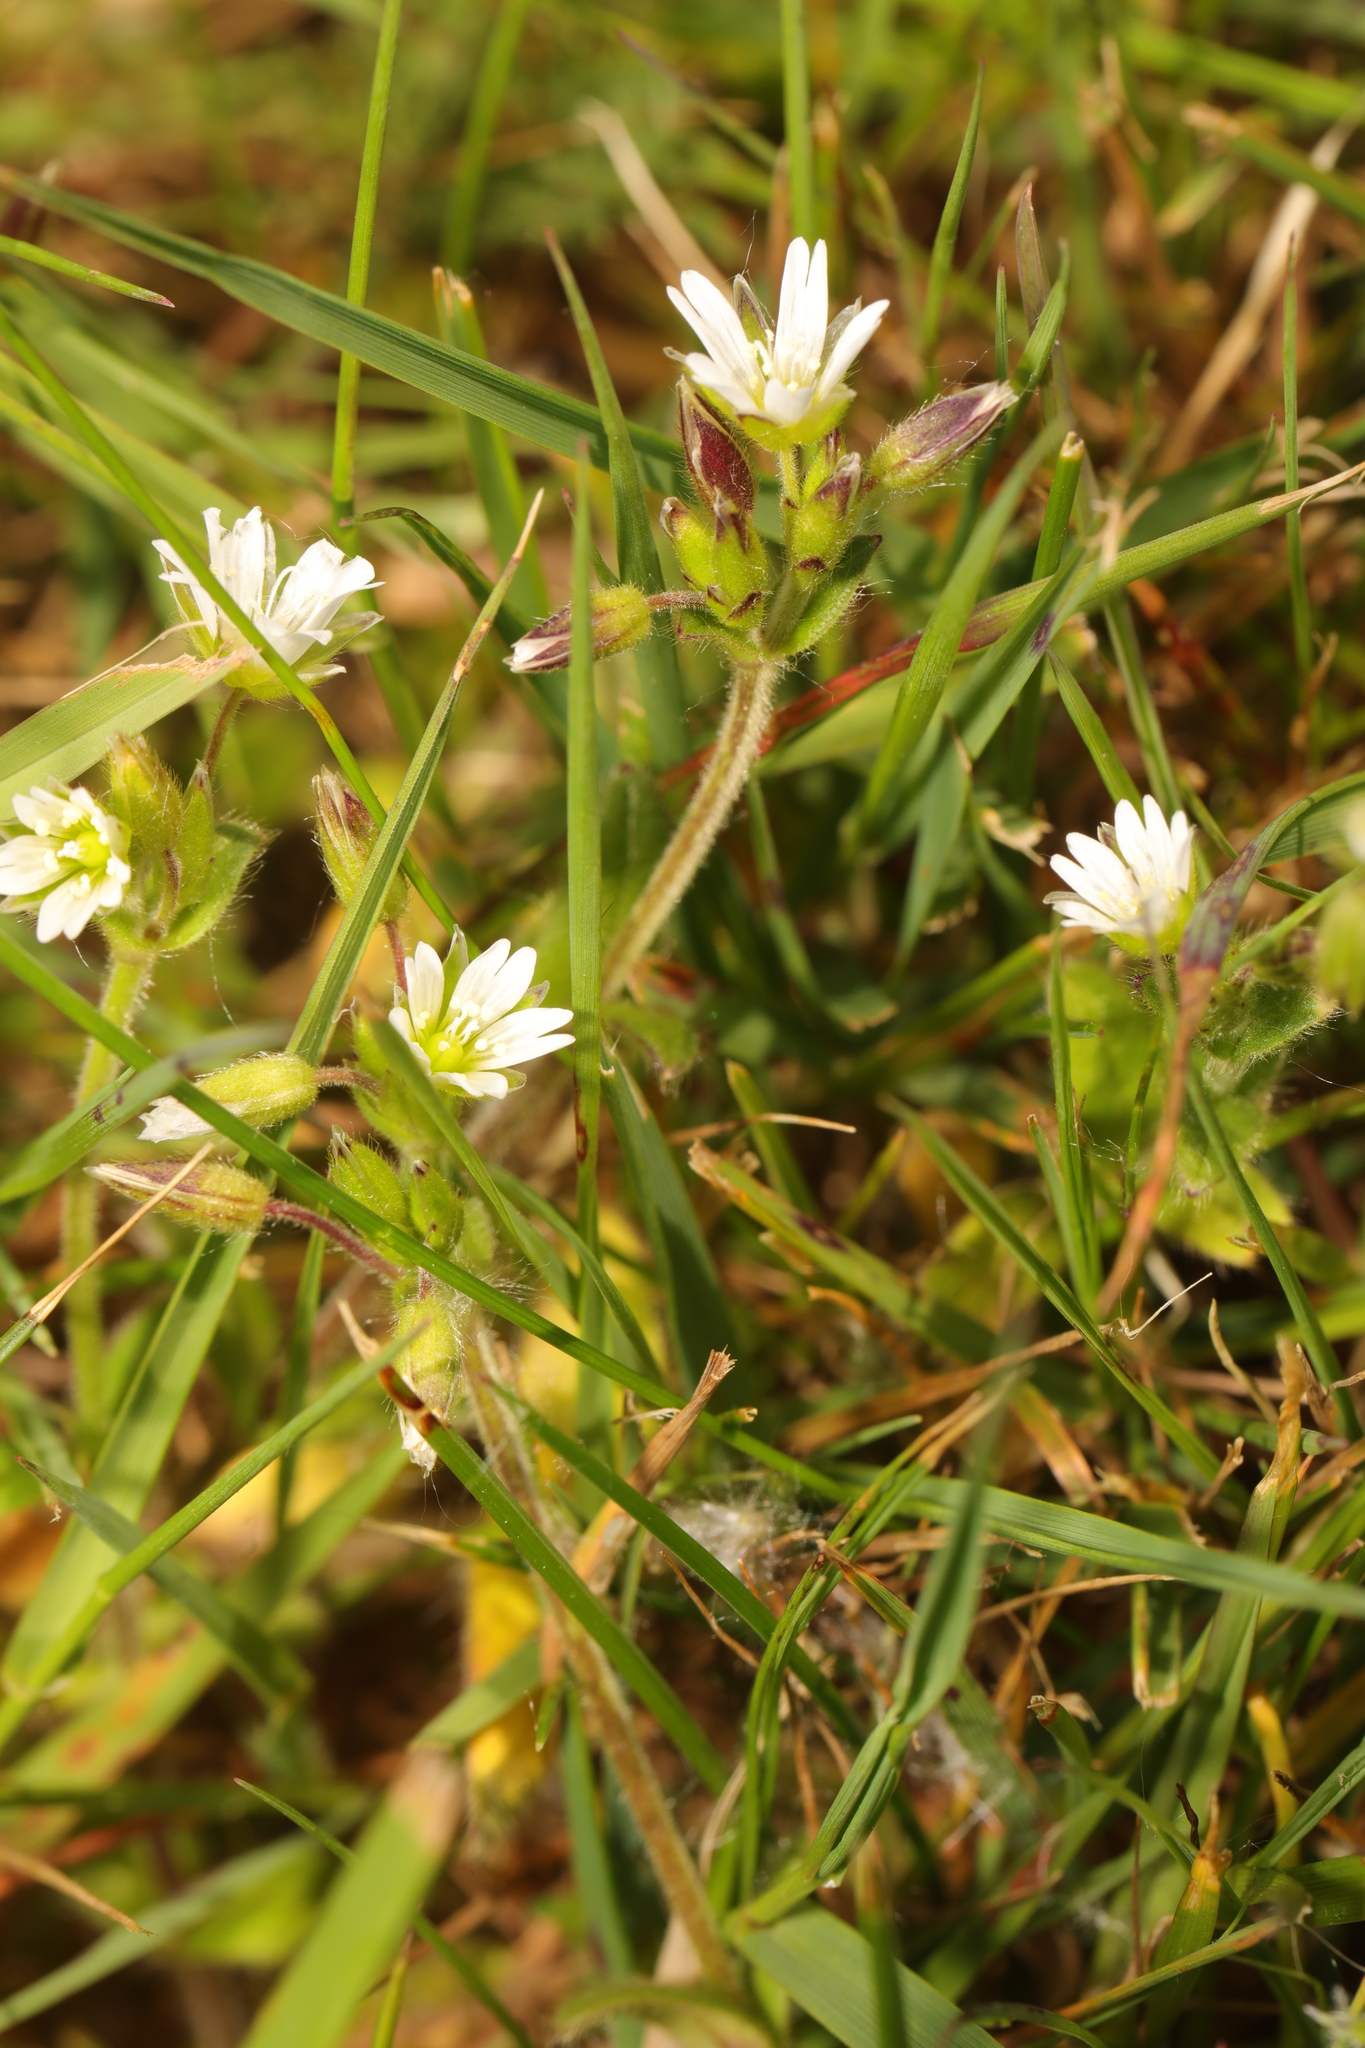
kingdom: Plantae
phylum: Tracheophyta
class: Magnoliopsida
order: Caryophyllales
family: Caryophyllaceae
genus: Cerastium
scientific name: Cerastium fontanum
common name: Common mouse-ear
